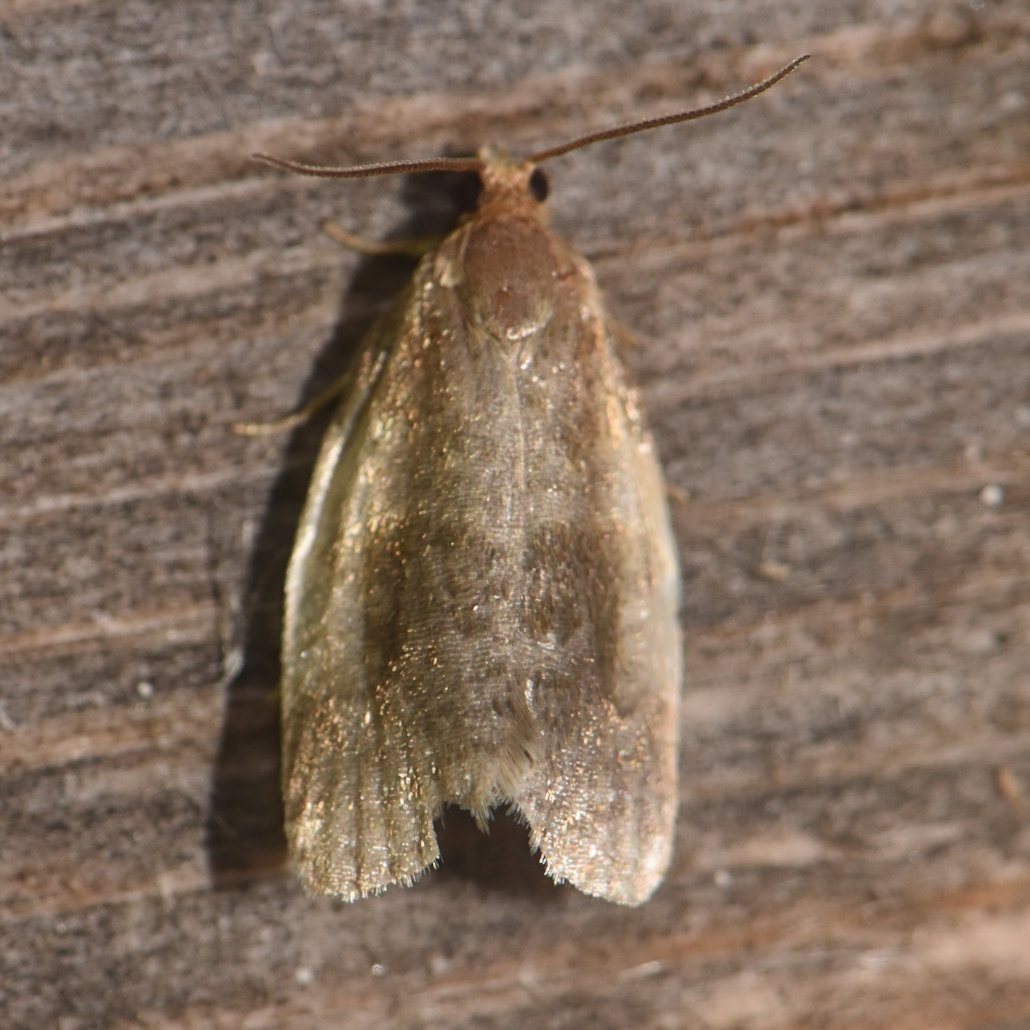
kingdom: Animalia
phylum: Arthropoda
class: Insecta
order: Lepidoptera
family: Tortricidae
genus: Clepsis
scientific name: Clepsis melaleucanus
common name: American apple tortrix
